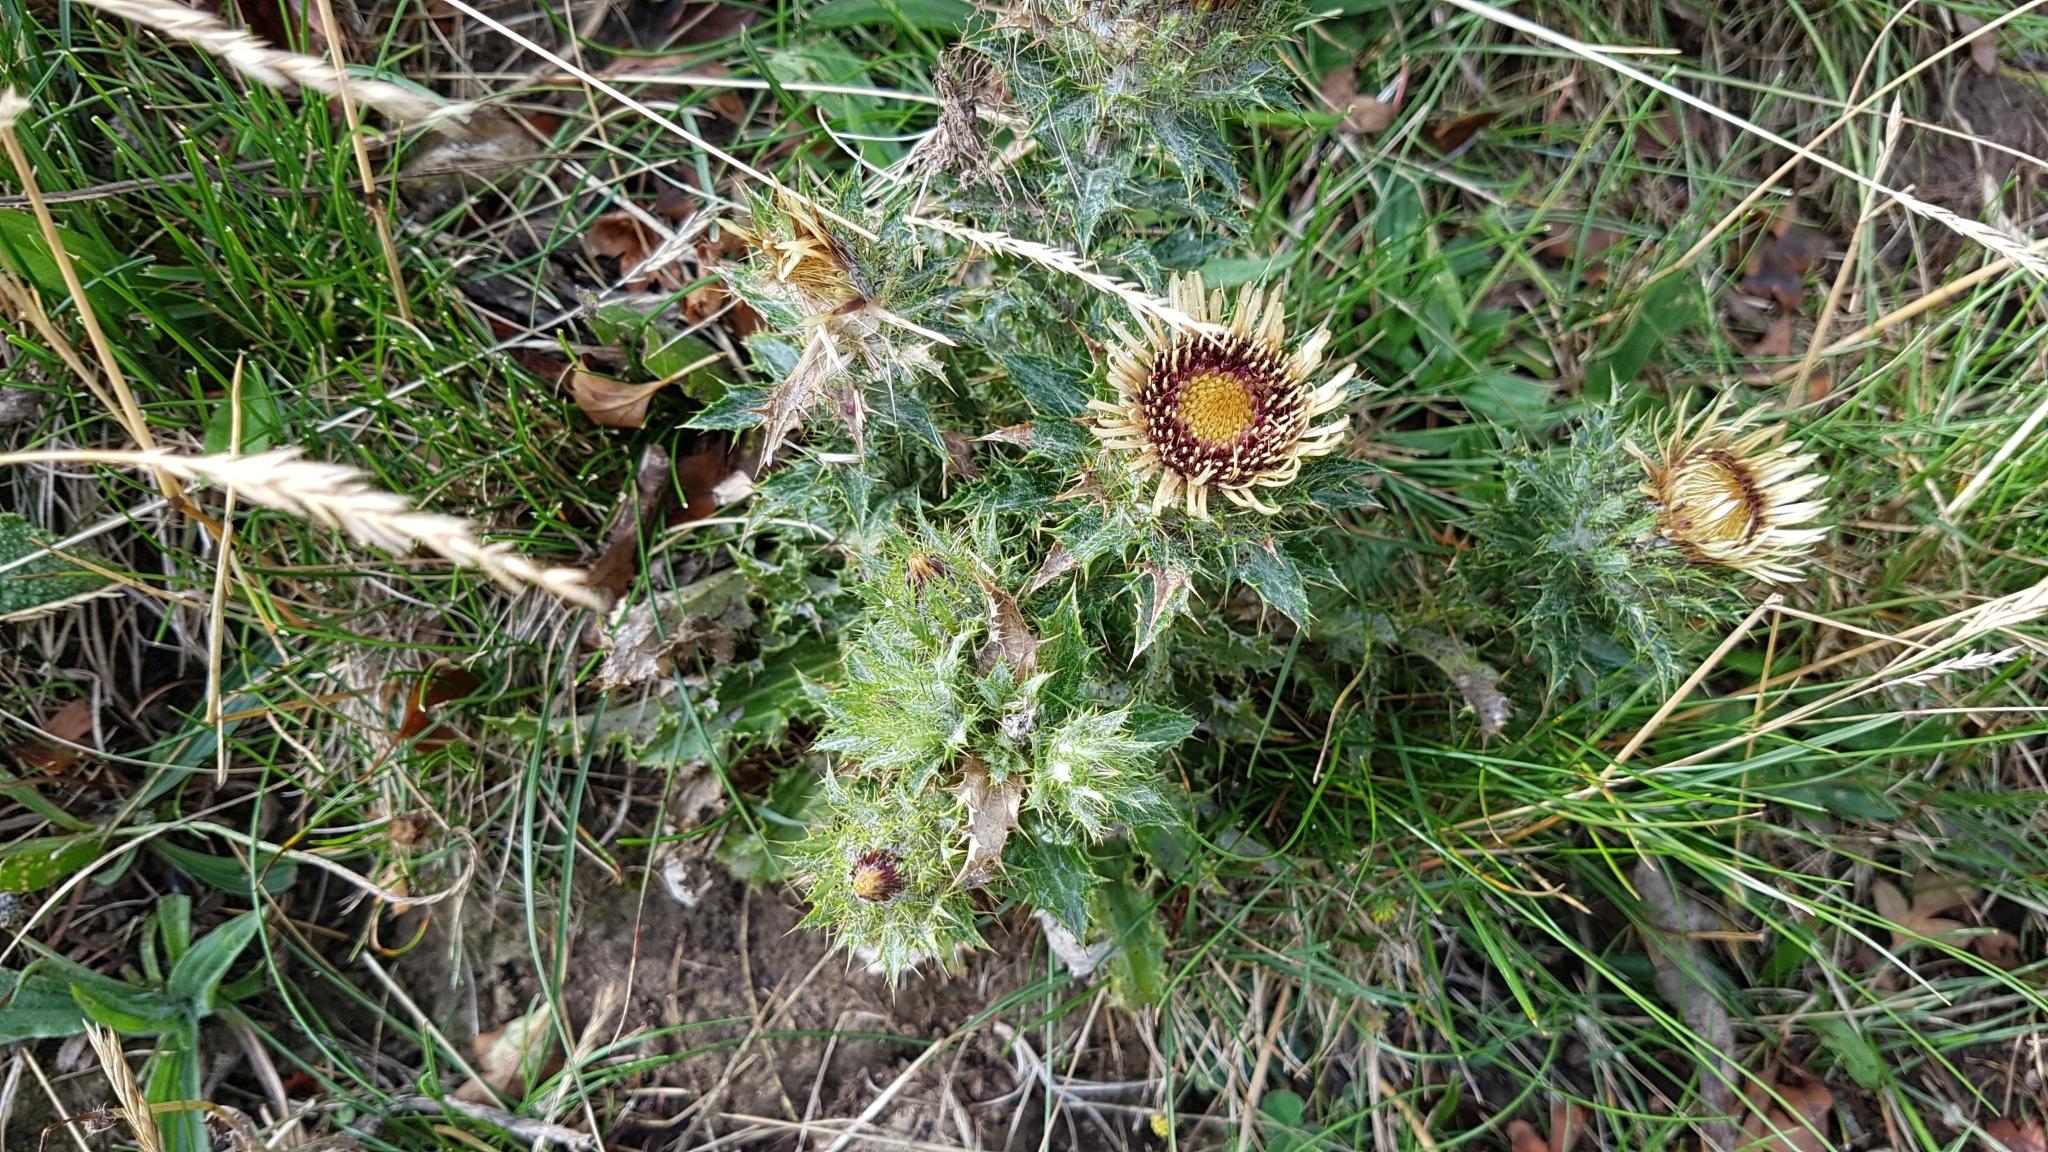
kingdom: Plantae
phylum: Tracheophyta
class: Magnoliopsida
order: Asterales
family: Asteraceae
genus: Carlina
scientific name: Carlina vulgaris
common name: Carline thistle
